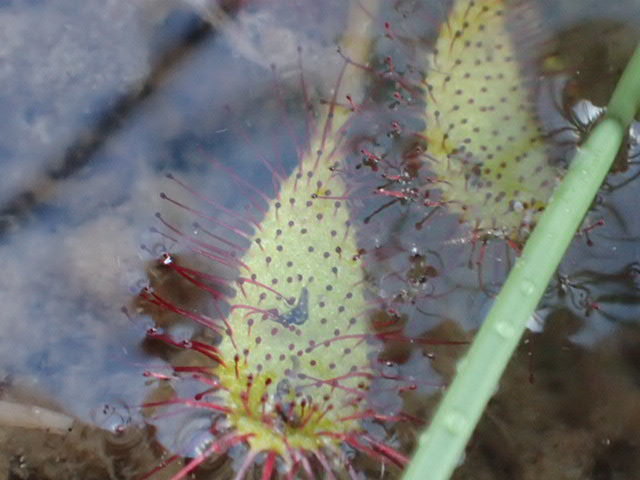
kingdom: Plantae
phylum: Tracheophyta
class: Magnoliopsida
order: Caryophyllales
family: Droseraceae
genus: Drosera
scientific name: Drosera anglica
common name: Great sundew
